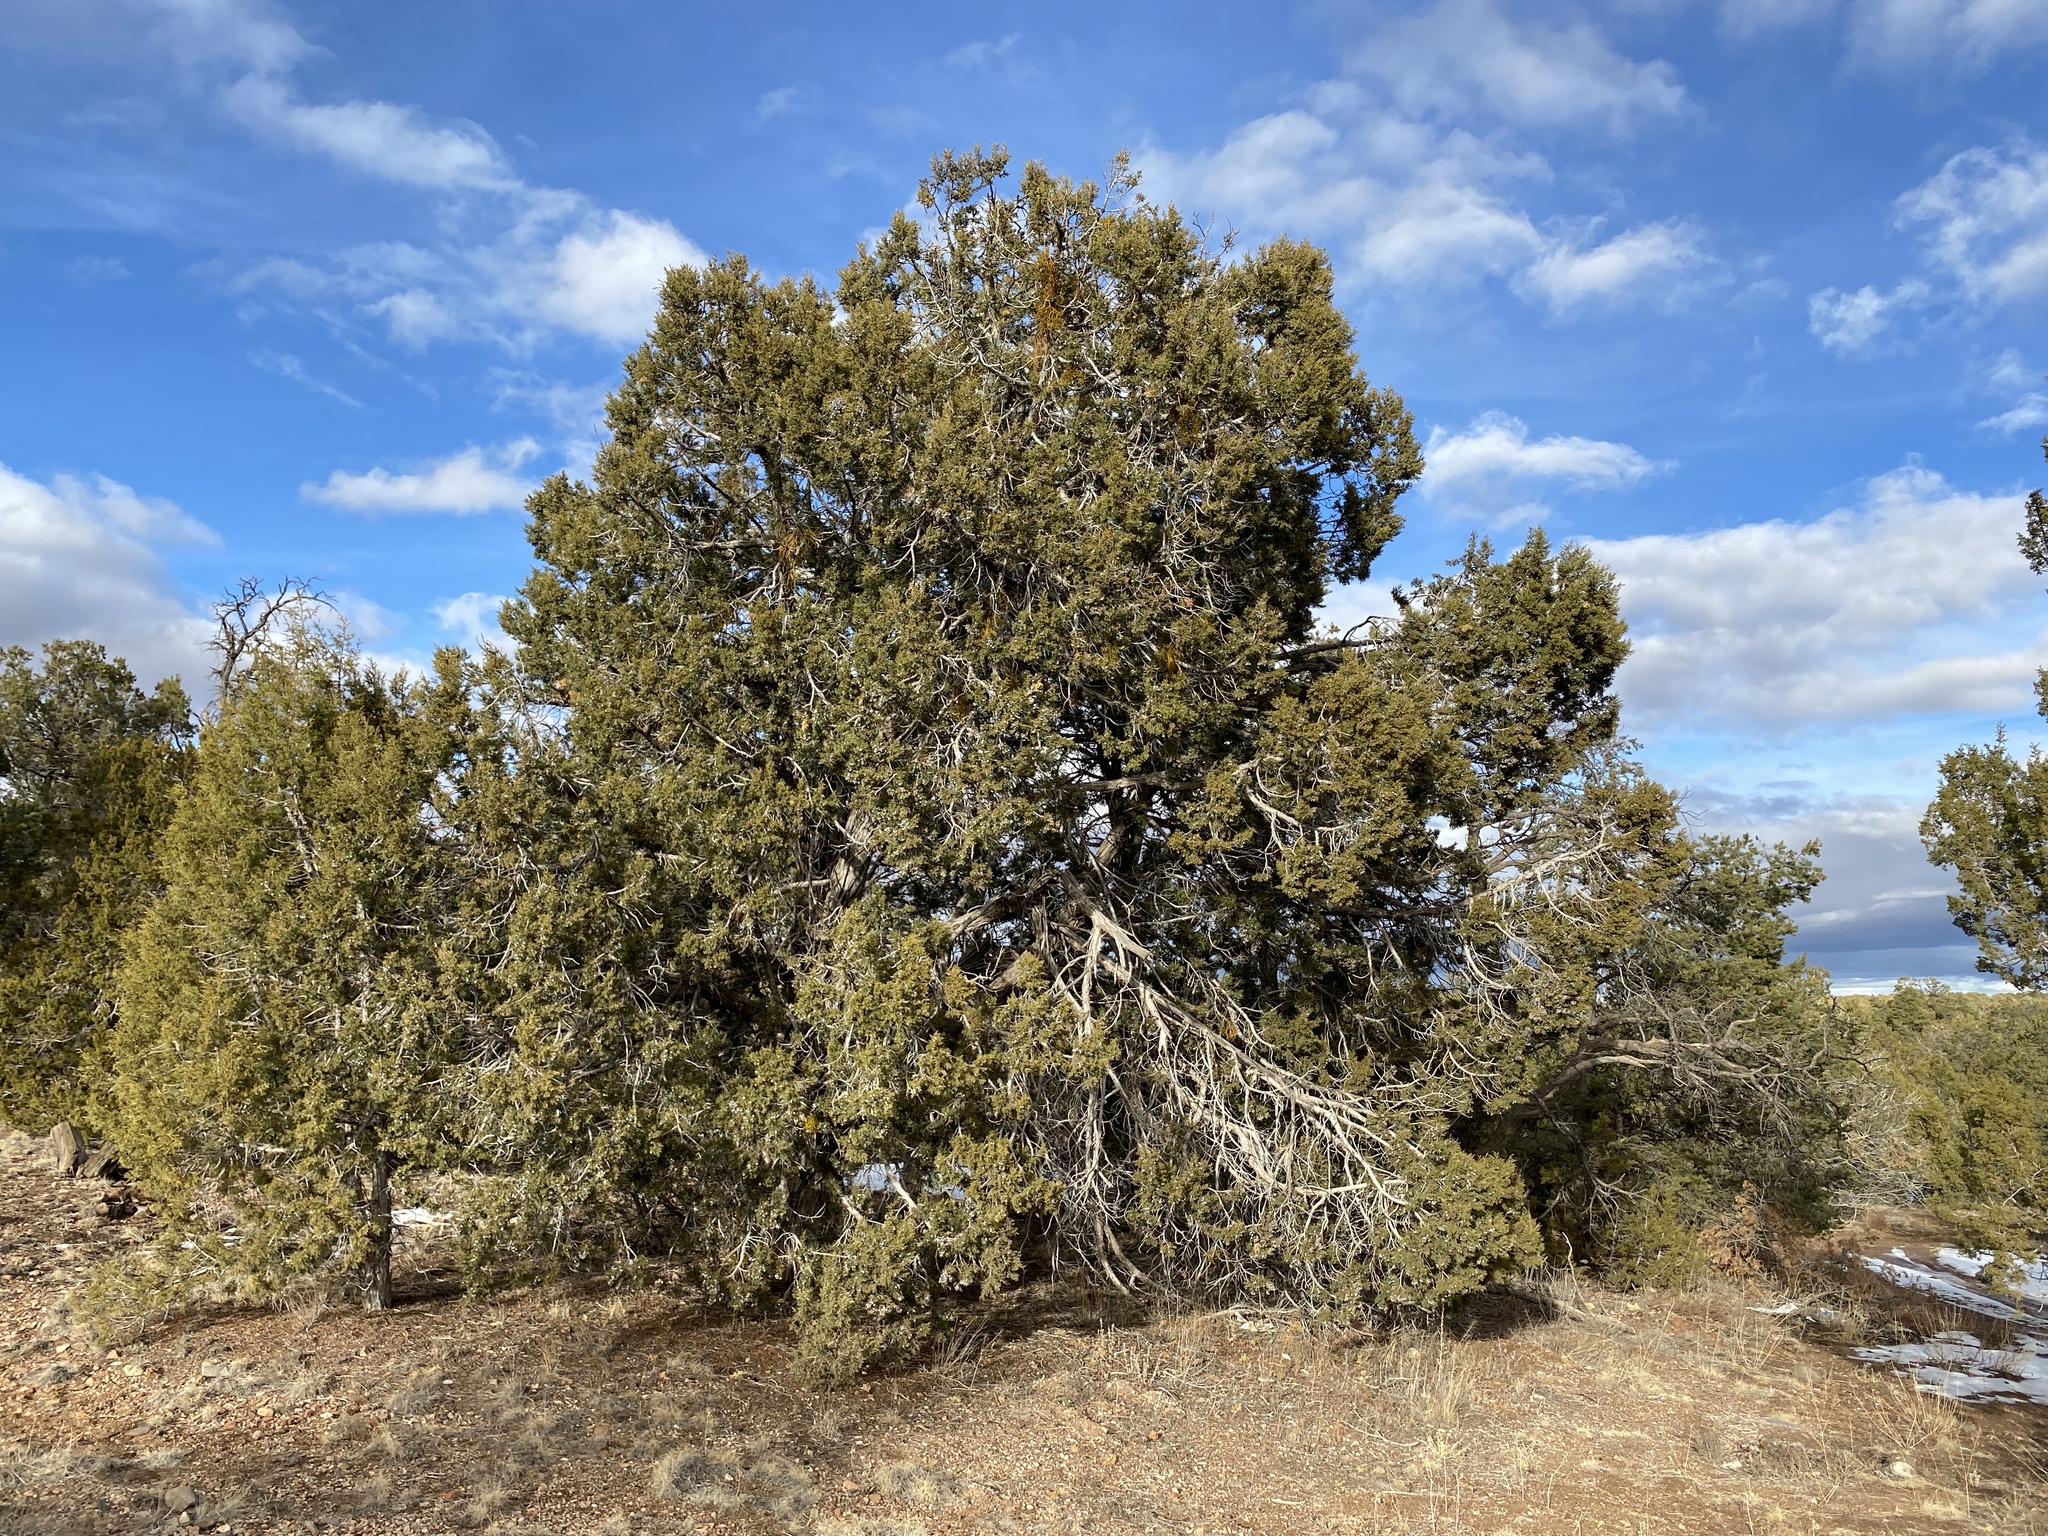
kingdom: Plantae
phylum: Tracheophyta
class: Pinopsida
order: Pinales
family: Cupressaceae
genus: Juniperus
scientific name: Juniperus osteosperma
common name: Utah juniper
